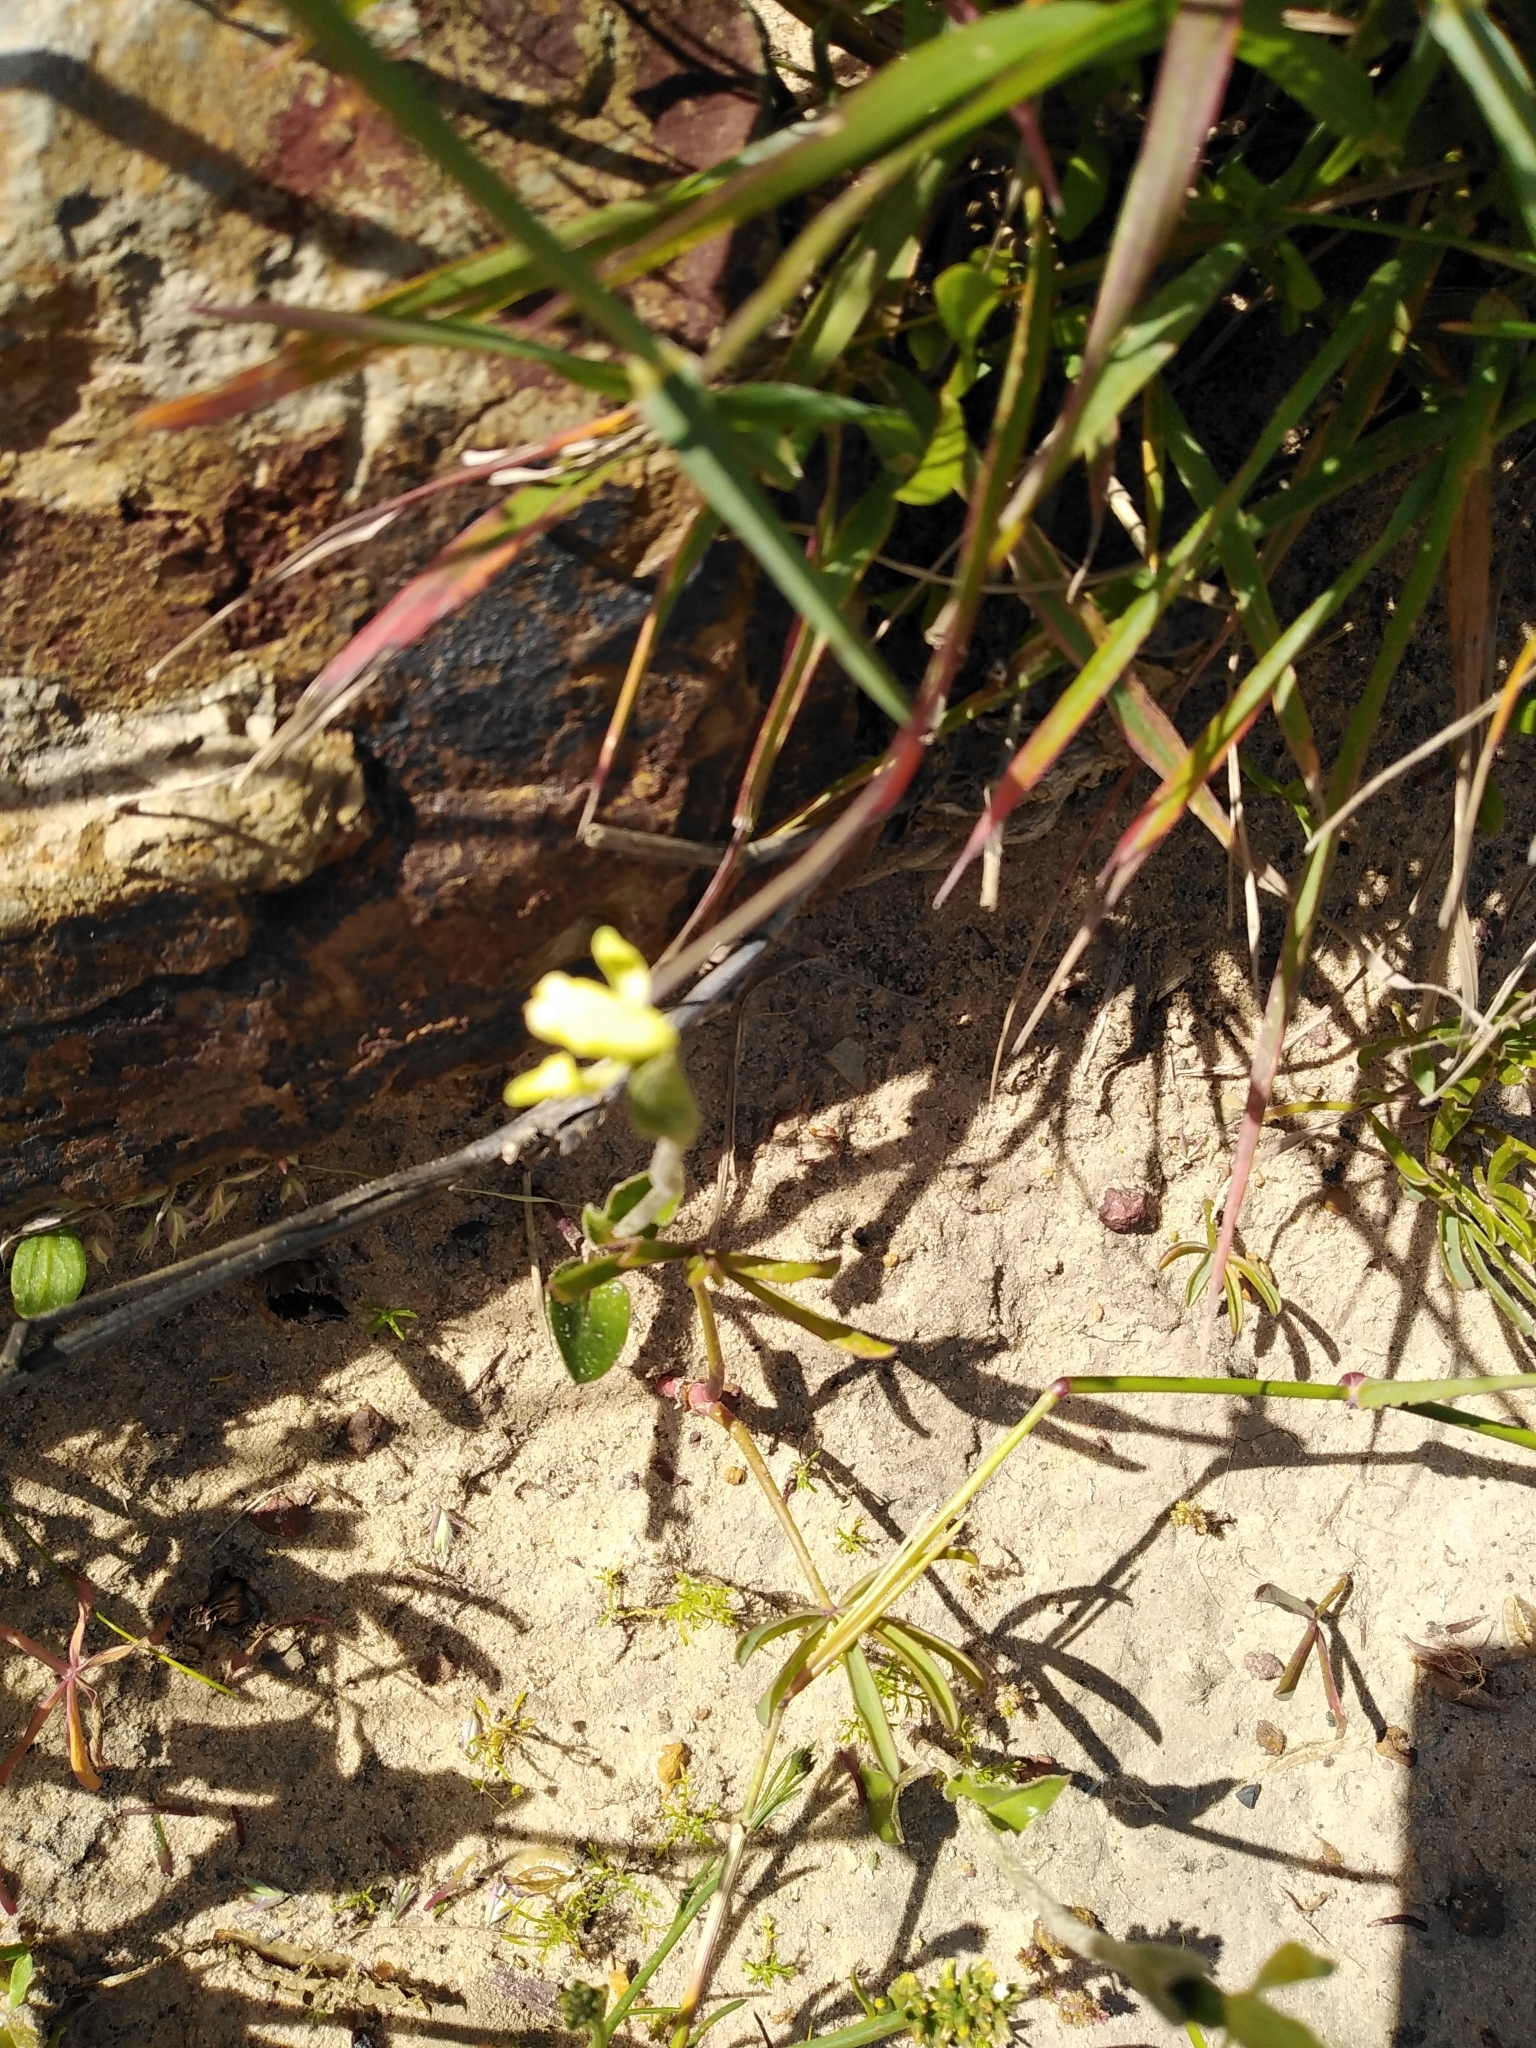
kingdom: Plantae
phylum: Tracheophyta
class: Liliopsida
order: Asparagales
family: Orchidaceae
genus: Disperis
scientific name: Disperis villosa
